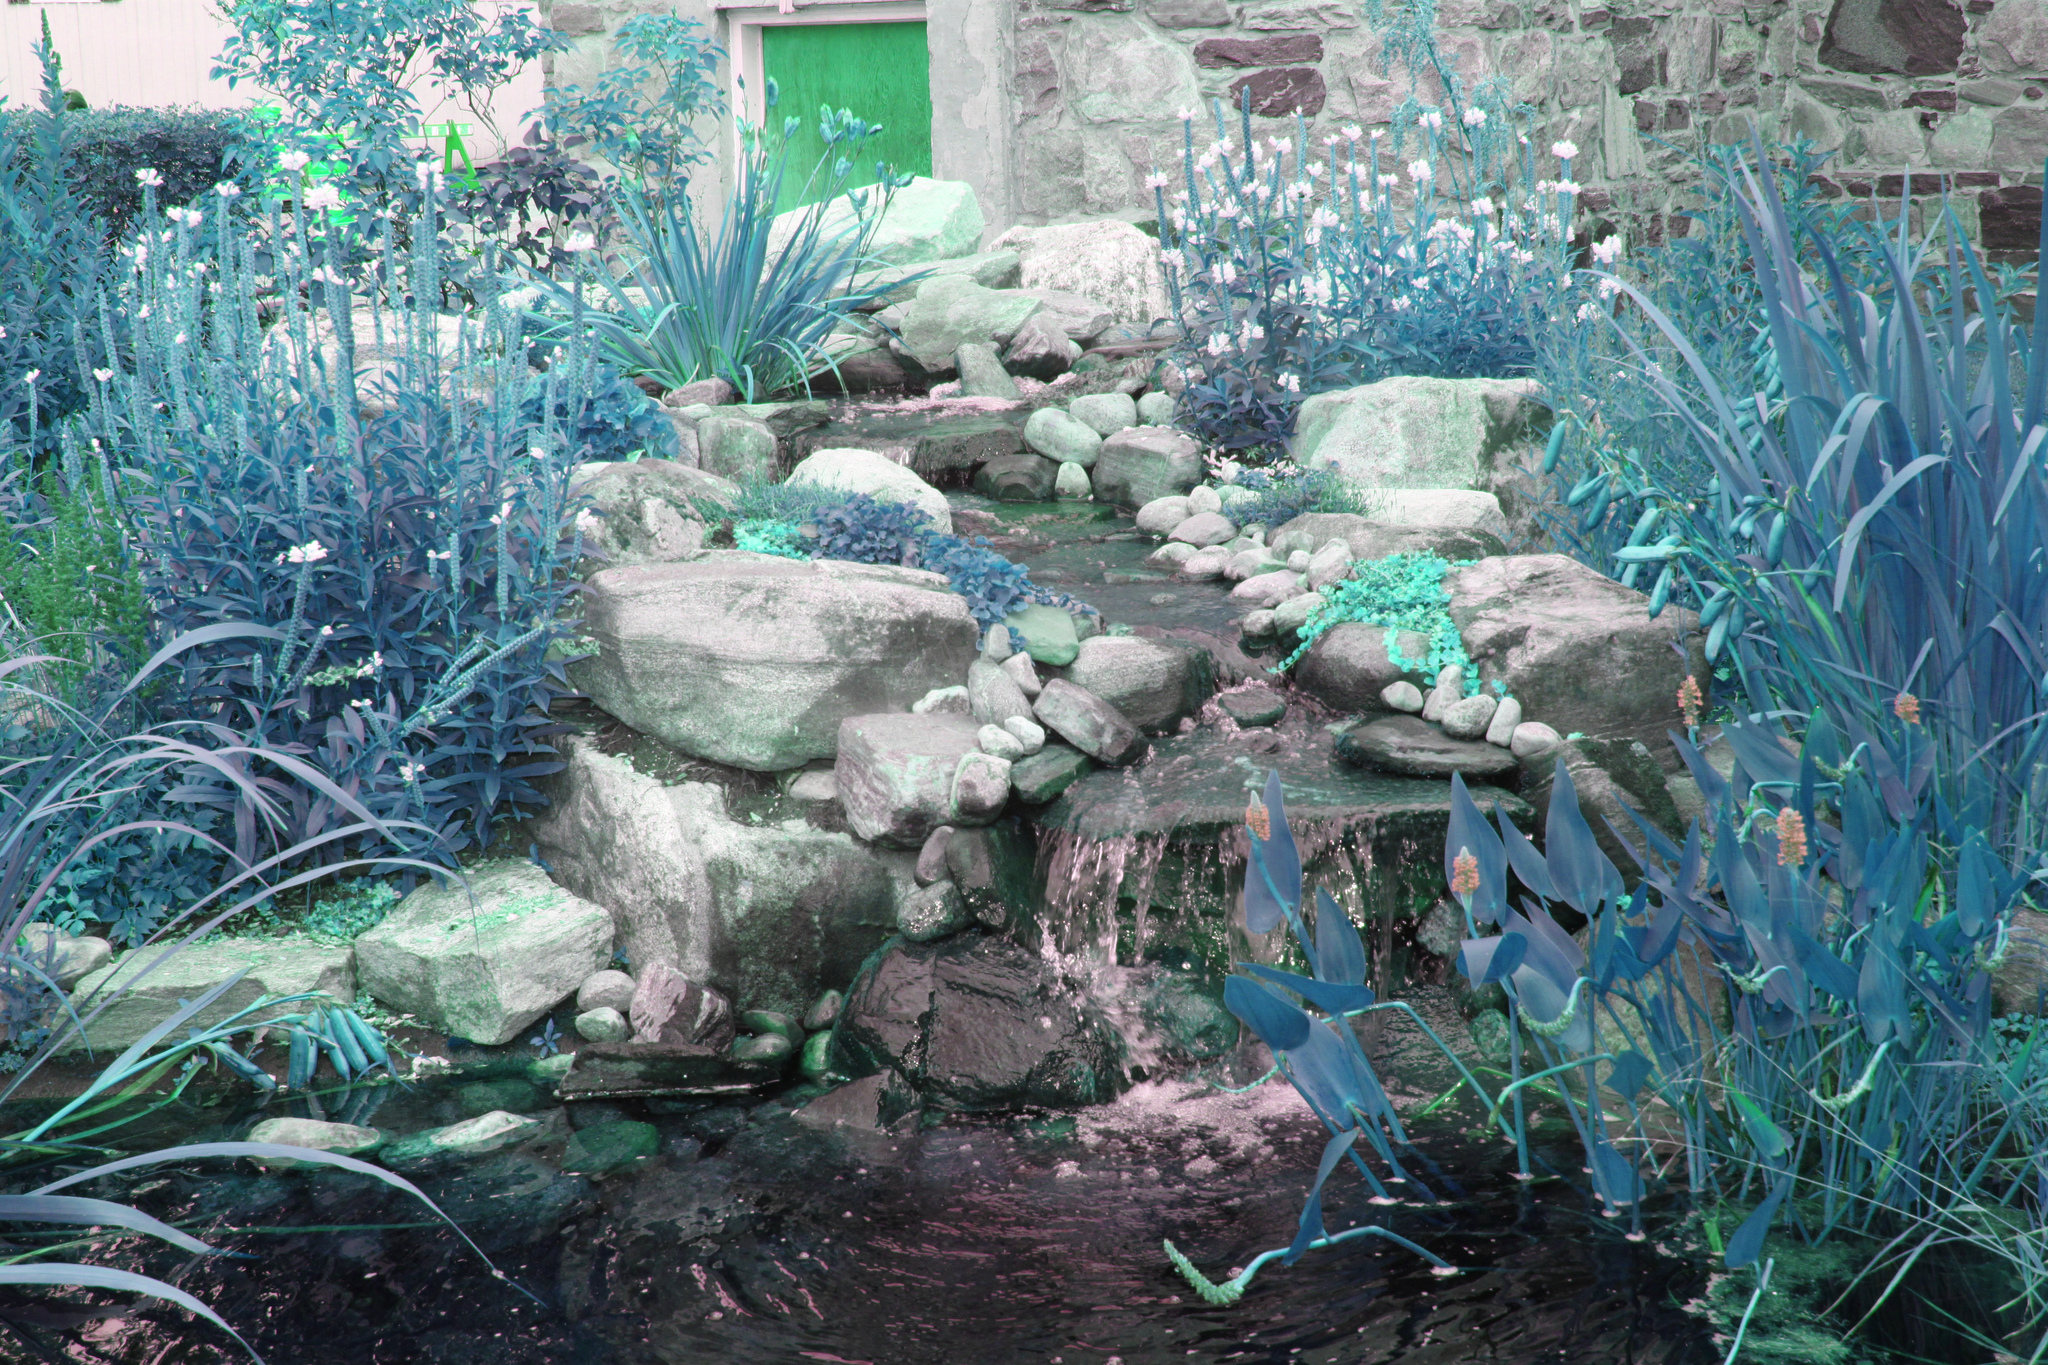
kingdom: Animalia
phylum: Chordata
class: Amphibia
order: Anura
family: Ranidae
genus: Lithobates
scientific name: Lithobates clamitans
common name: Green frog
